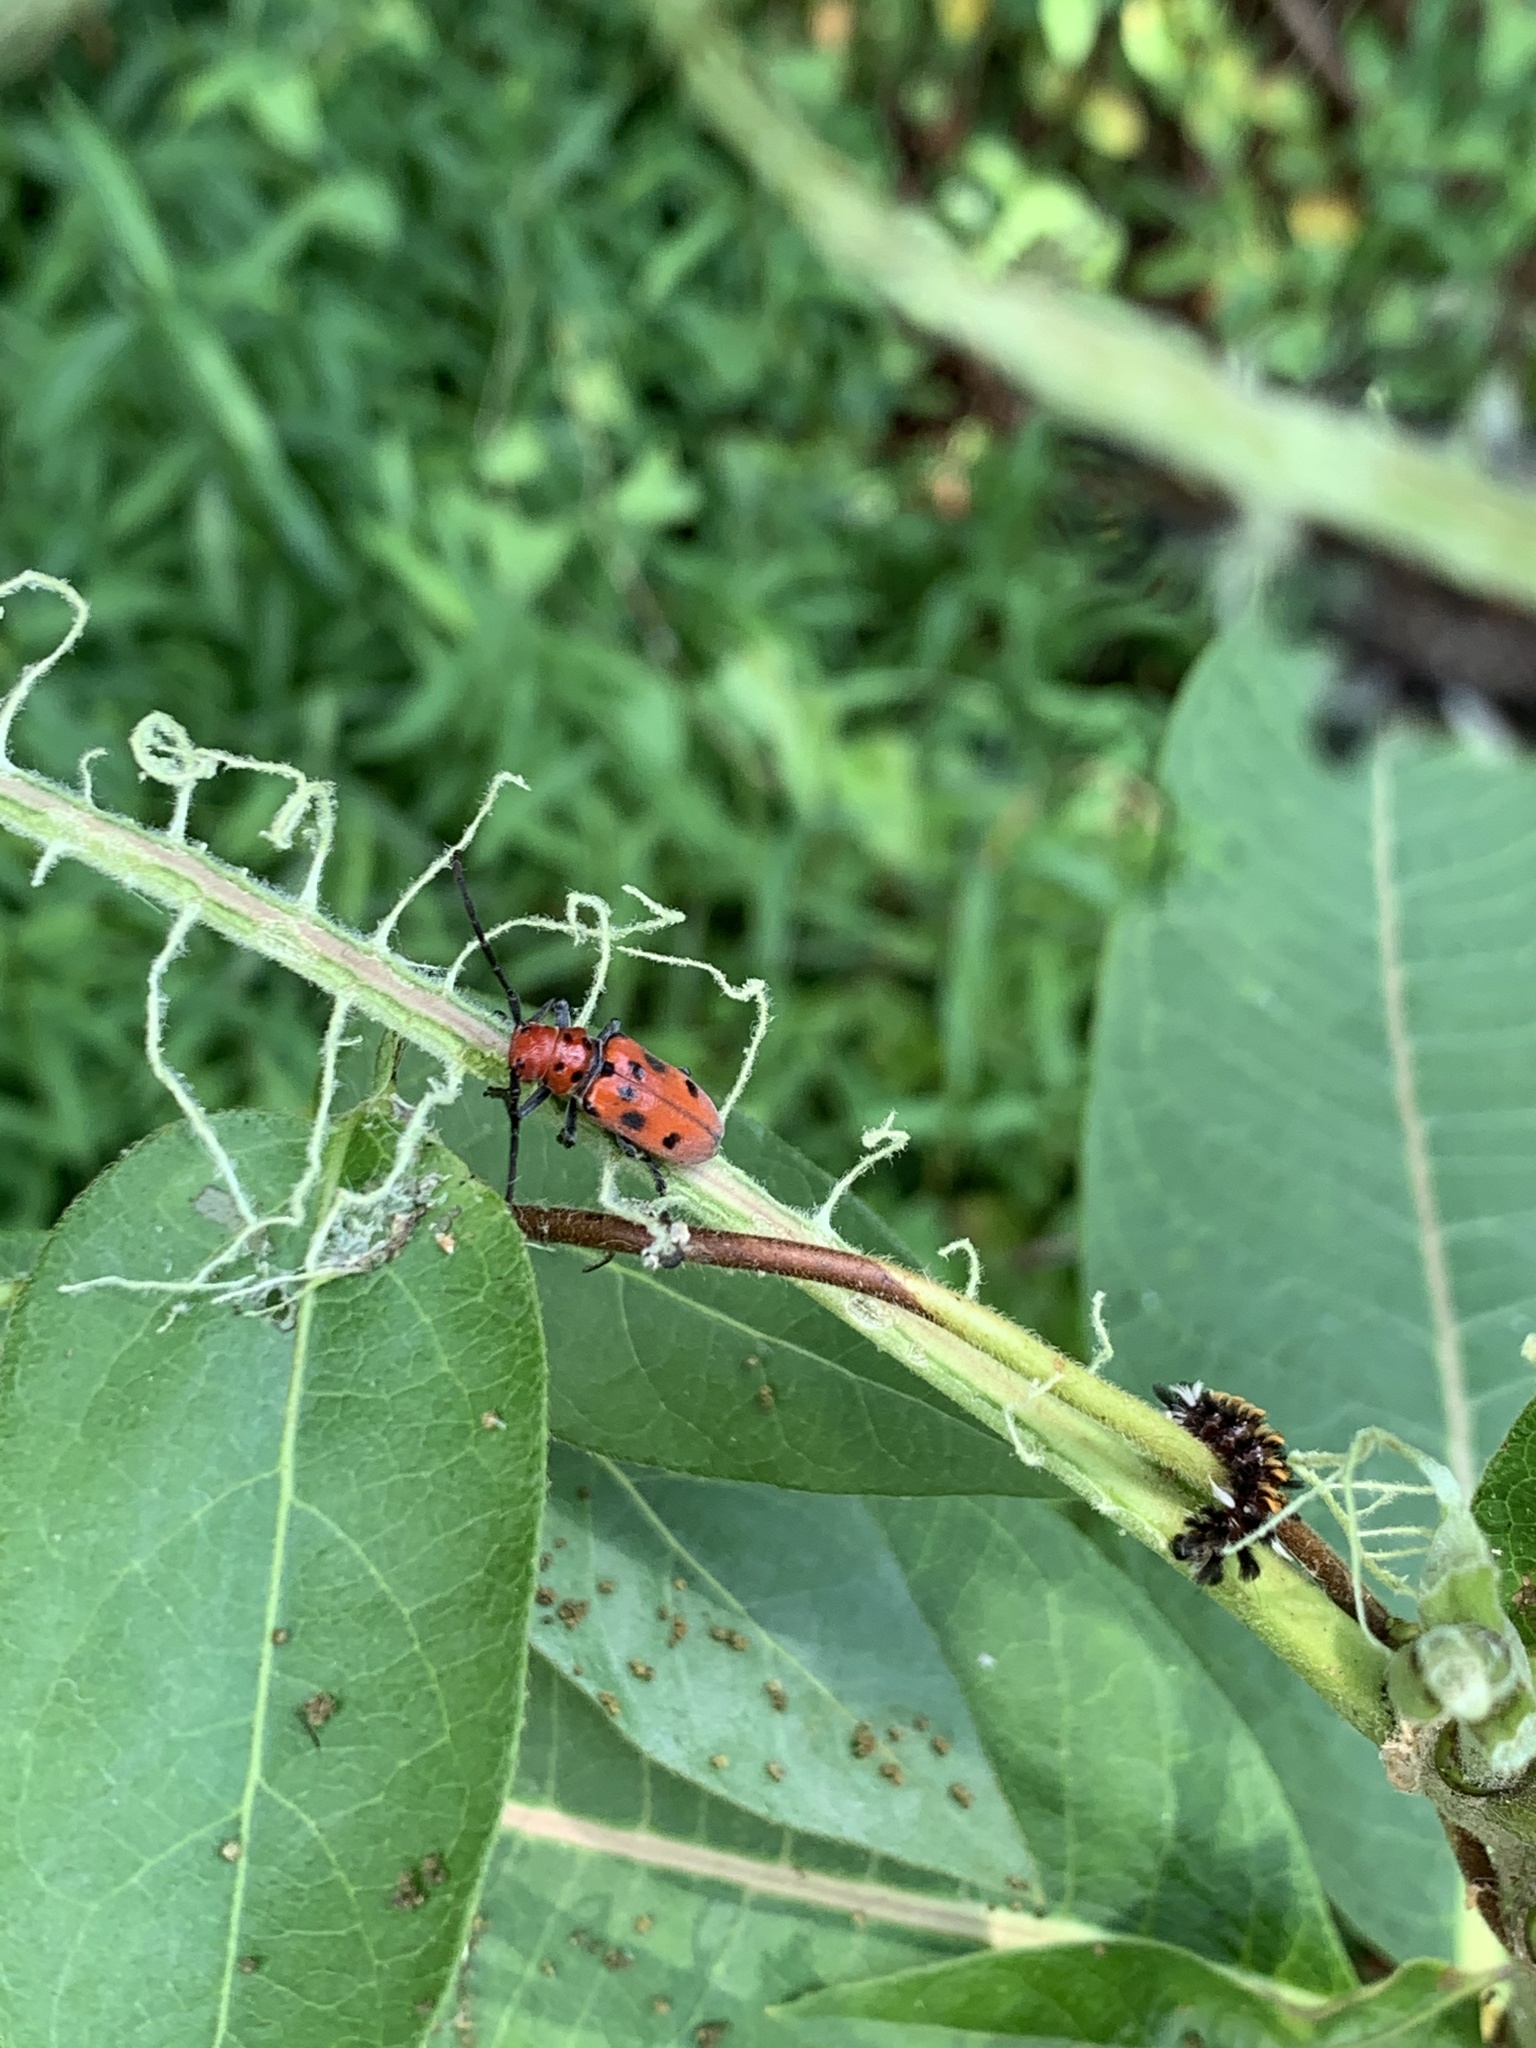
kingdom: Animalia
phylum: Arthropoda
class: Insecta
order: Coleoptera
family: Cerambycidae
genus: Tetraopes
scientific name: Tetraopes tetrophthalmus
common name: Red milkweed beetle
